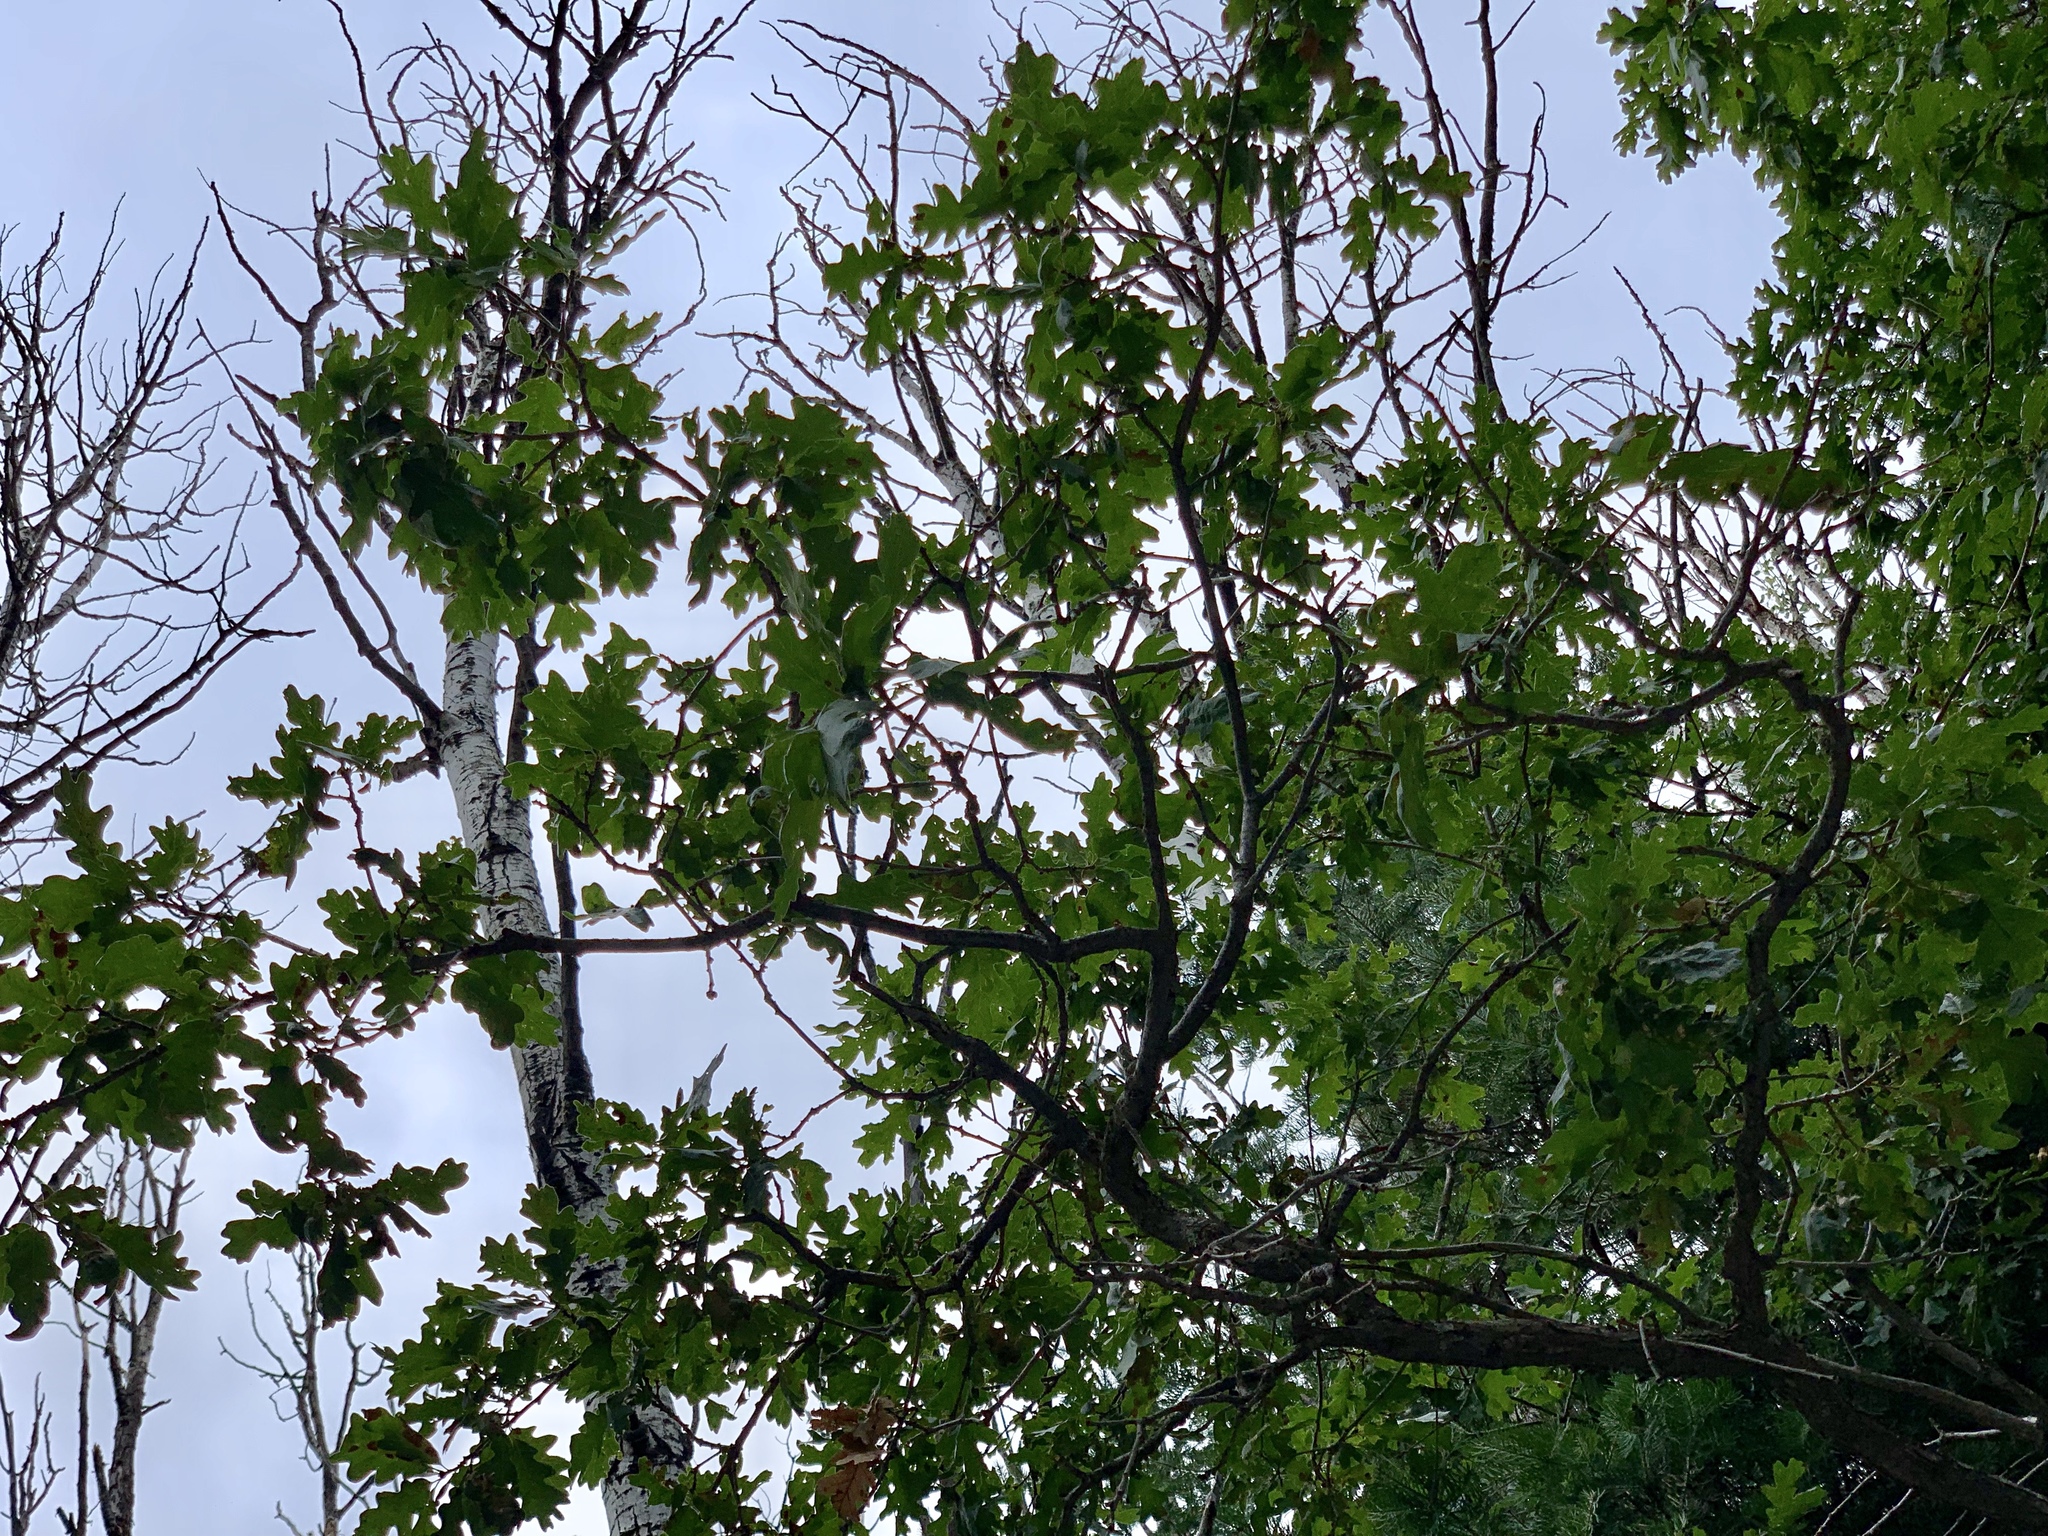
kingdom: Plantae
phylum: Tracheophyta
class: Magnoliopsida
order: Fagales
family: Fagaceae
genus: Quercus
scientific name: Quercus gambelii
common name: Gambel oak
